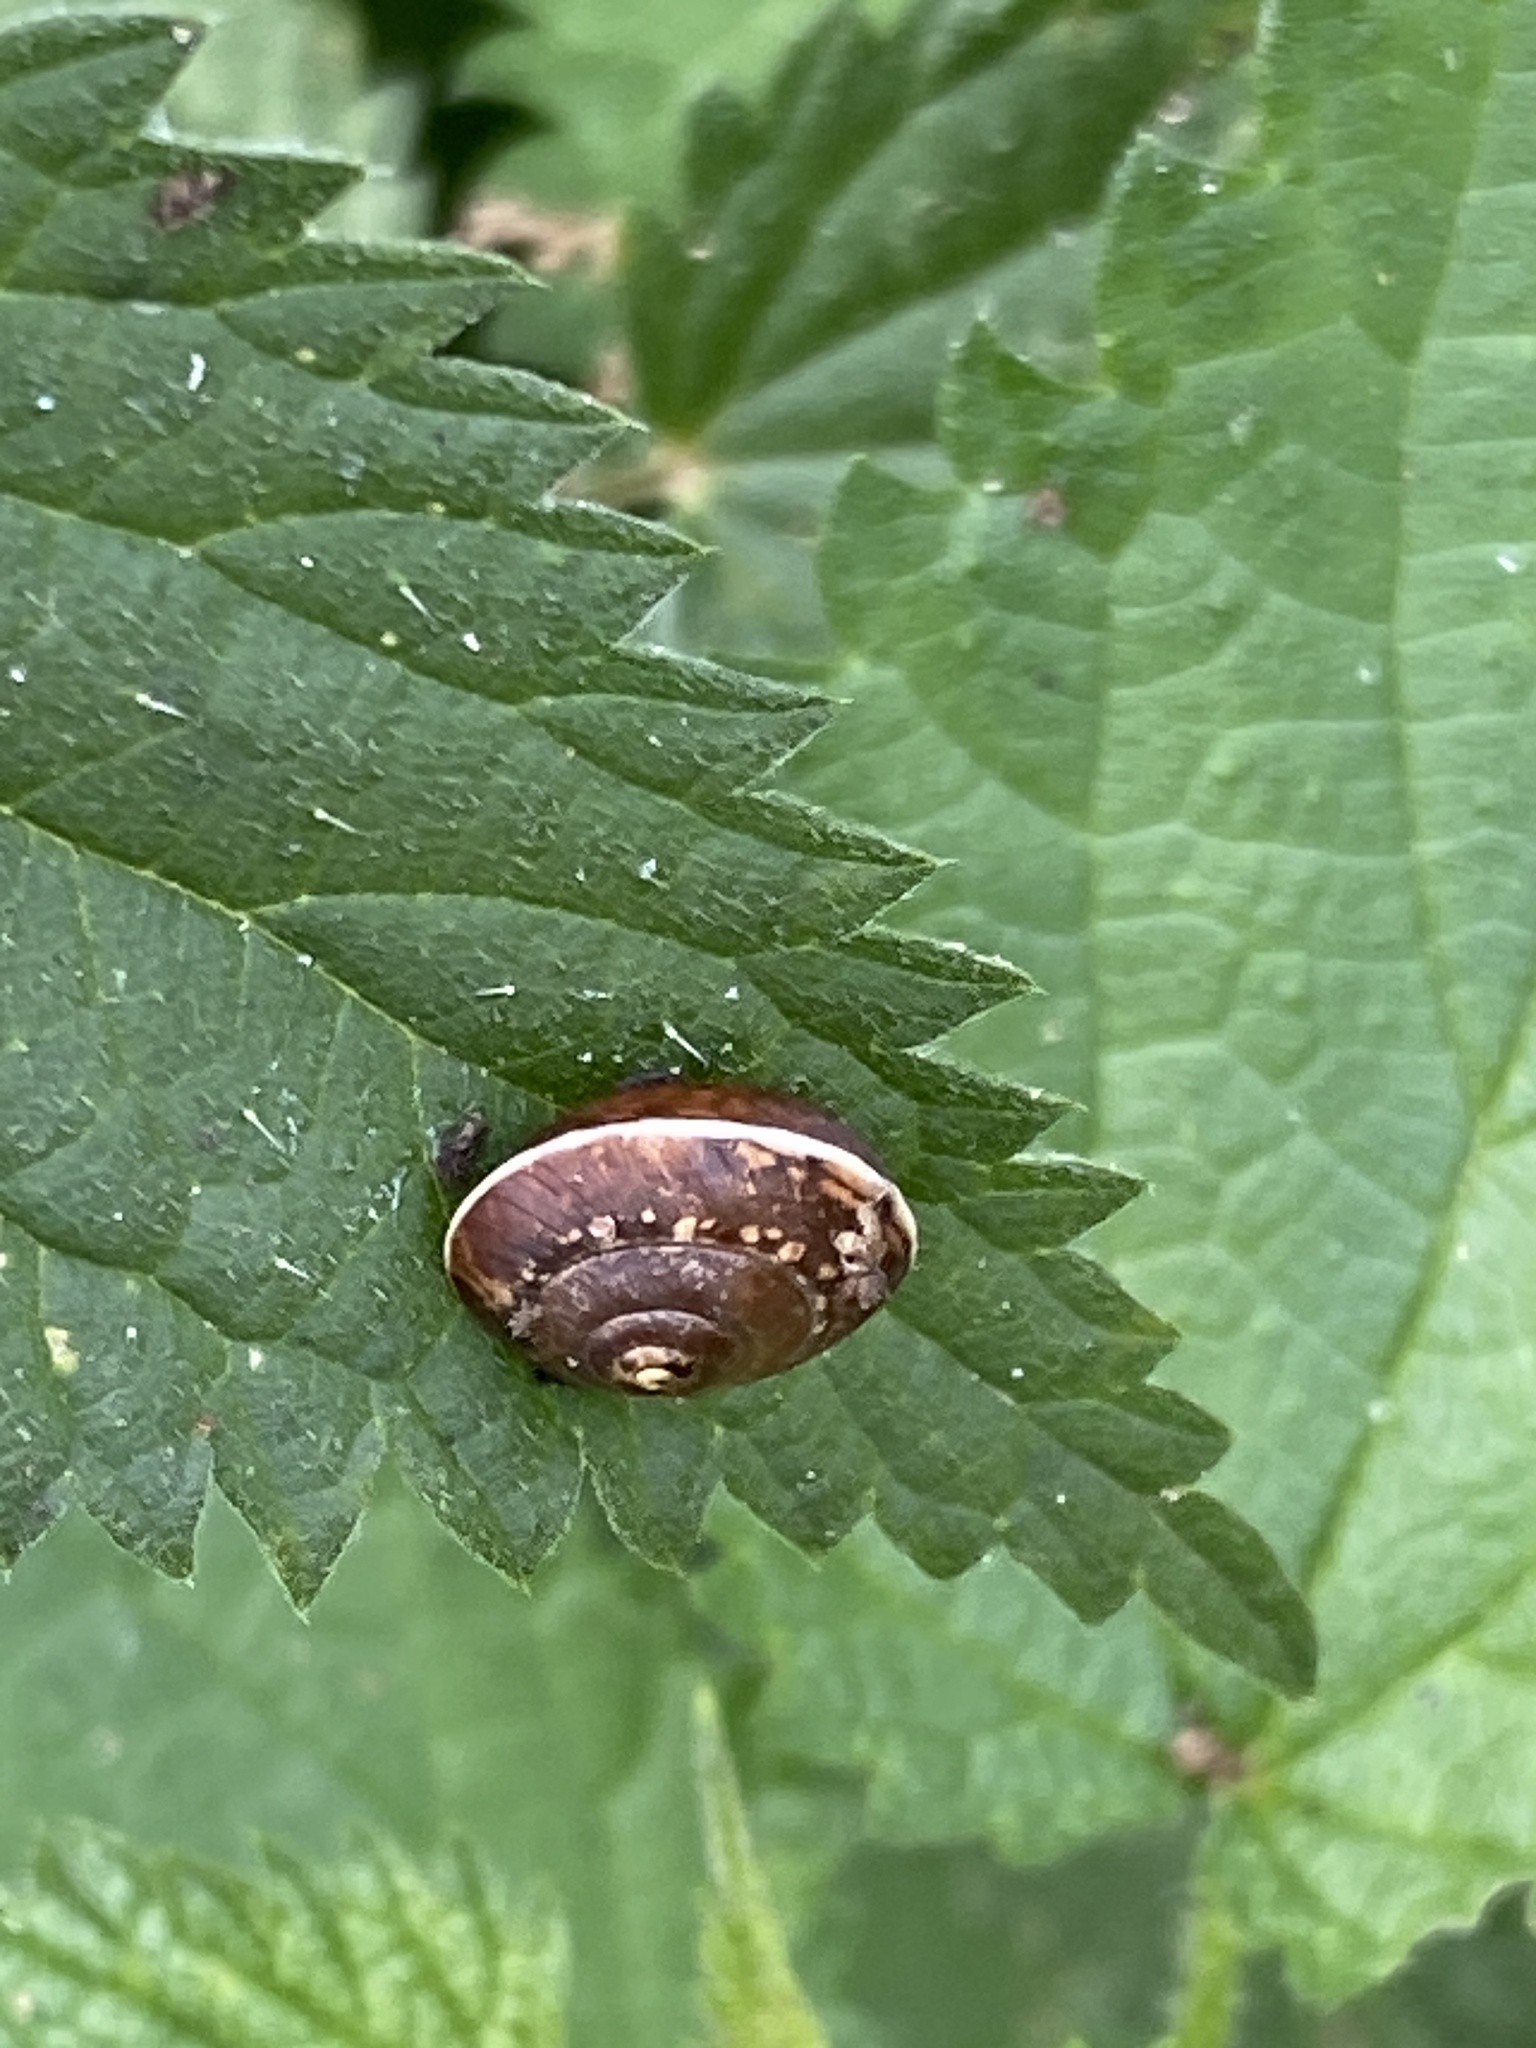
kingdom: Animalia
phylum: Mollusca
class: Gastropoda
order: Stylommatophora
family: Hygromiidae
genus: Hygromia
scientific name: Hygromia cinctella
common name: Girdled snail
